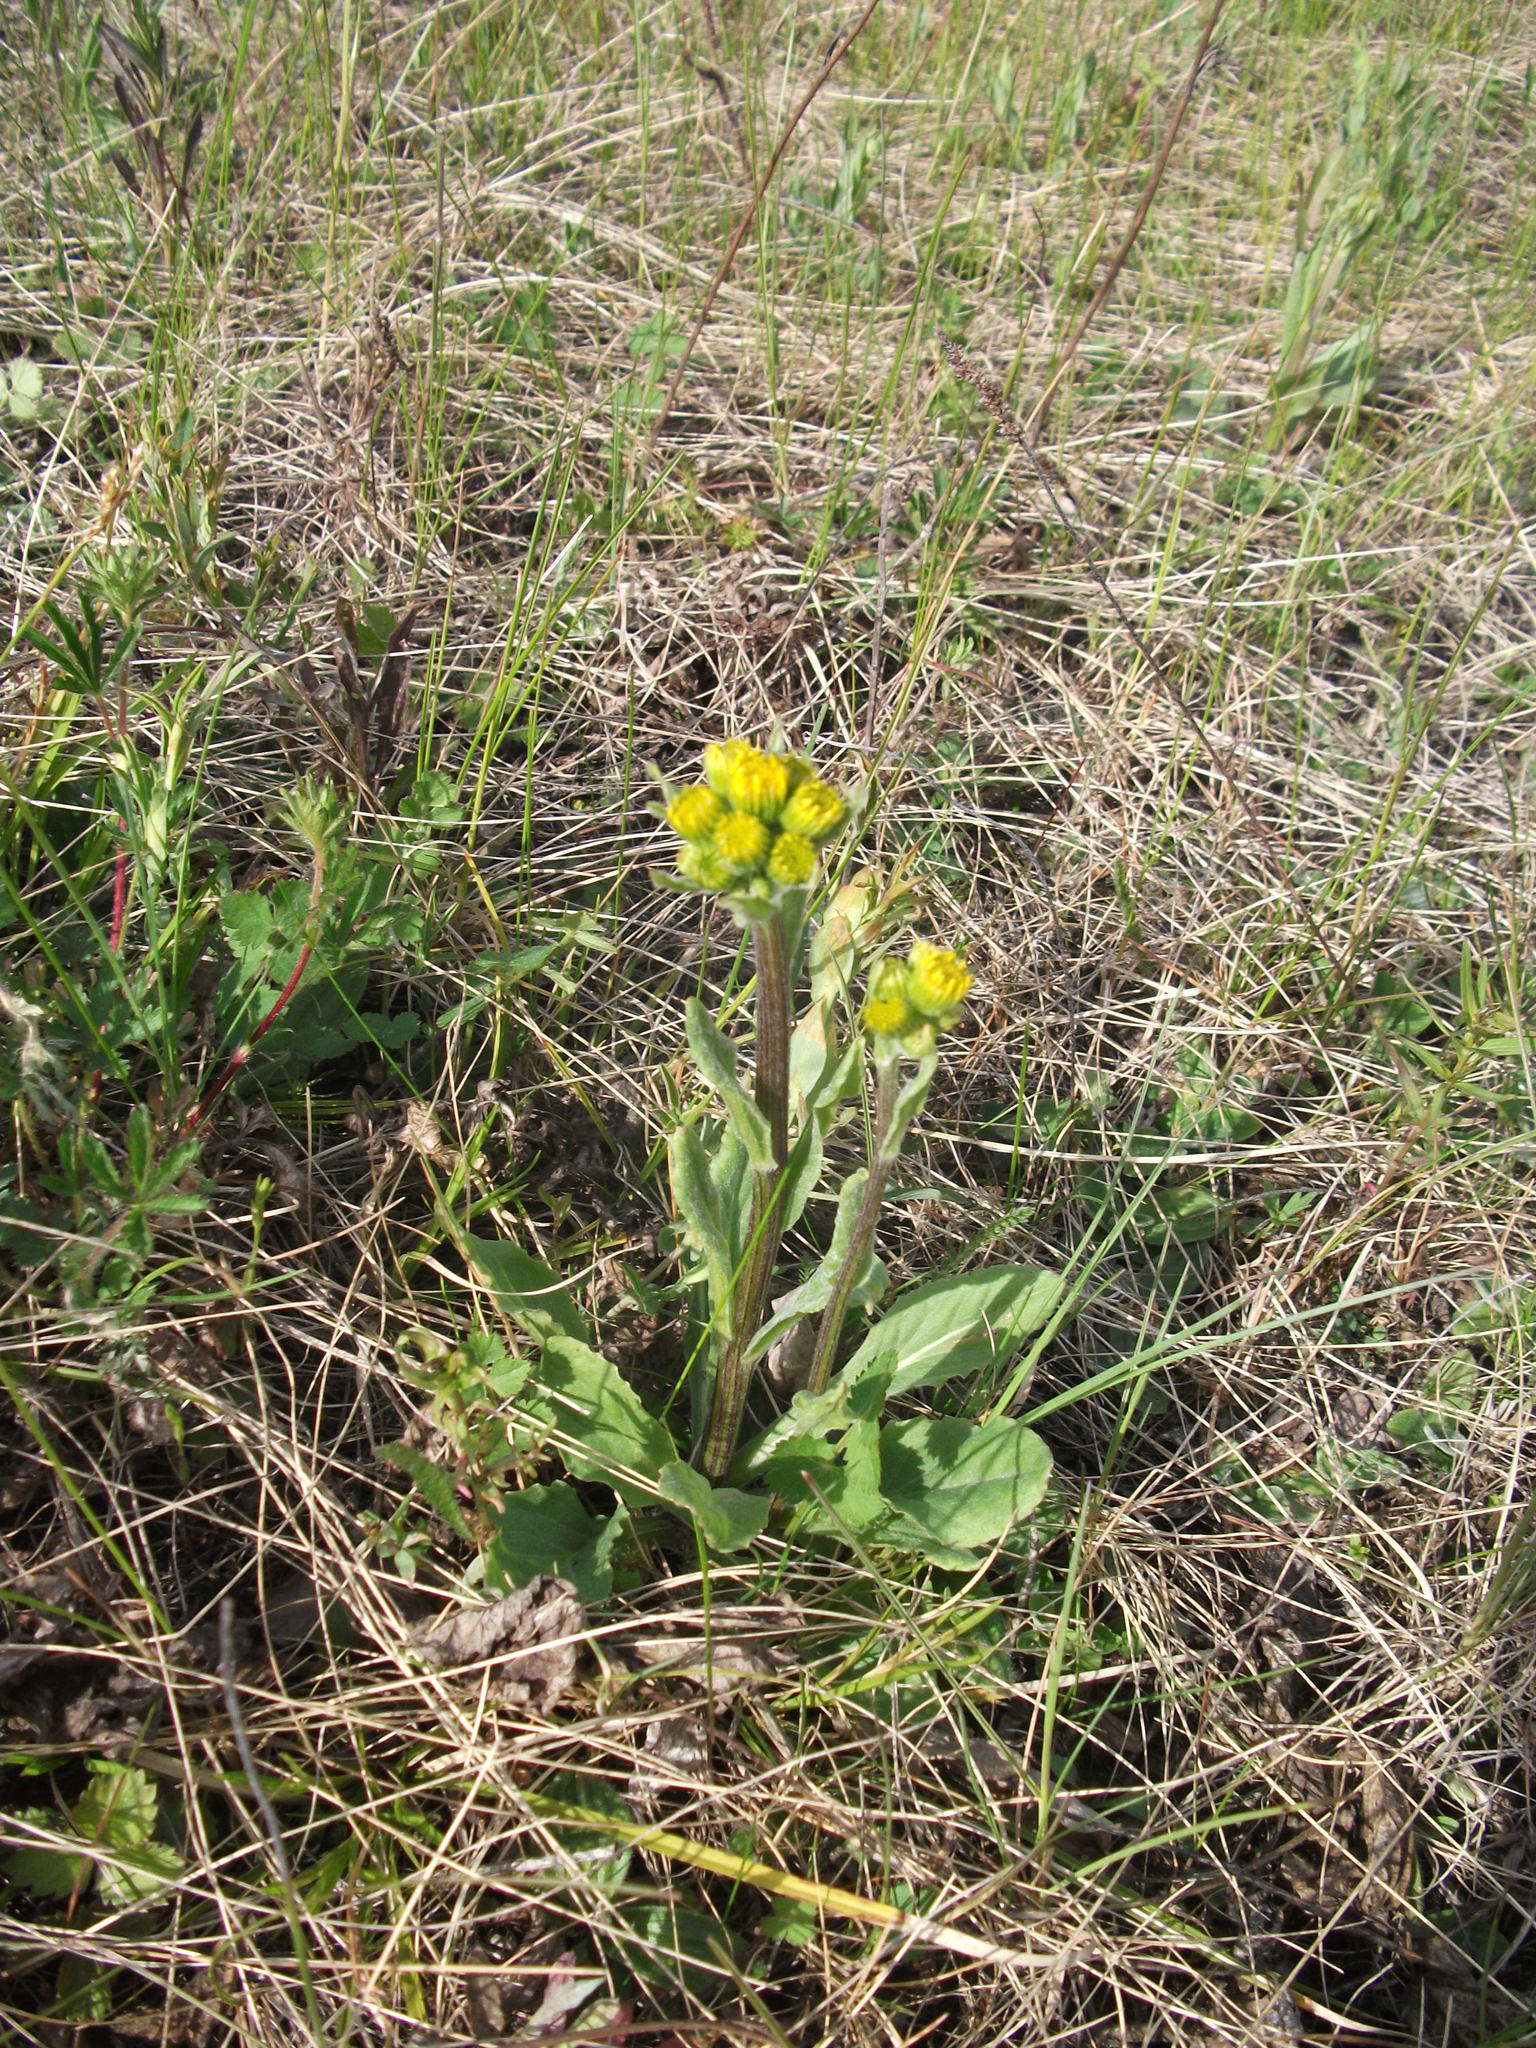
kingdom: Plantae
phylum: Tracheophyta
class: Magnoliopsida
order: Asterales
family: Asteraceae
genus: Tephroseris
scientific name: Tephroseris integrifolia
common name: Field fleawort
